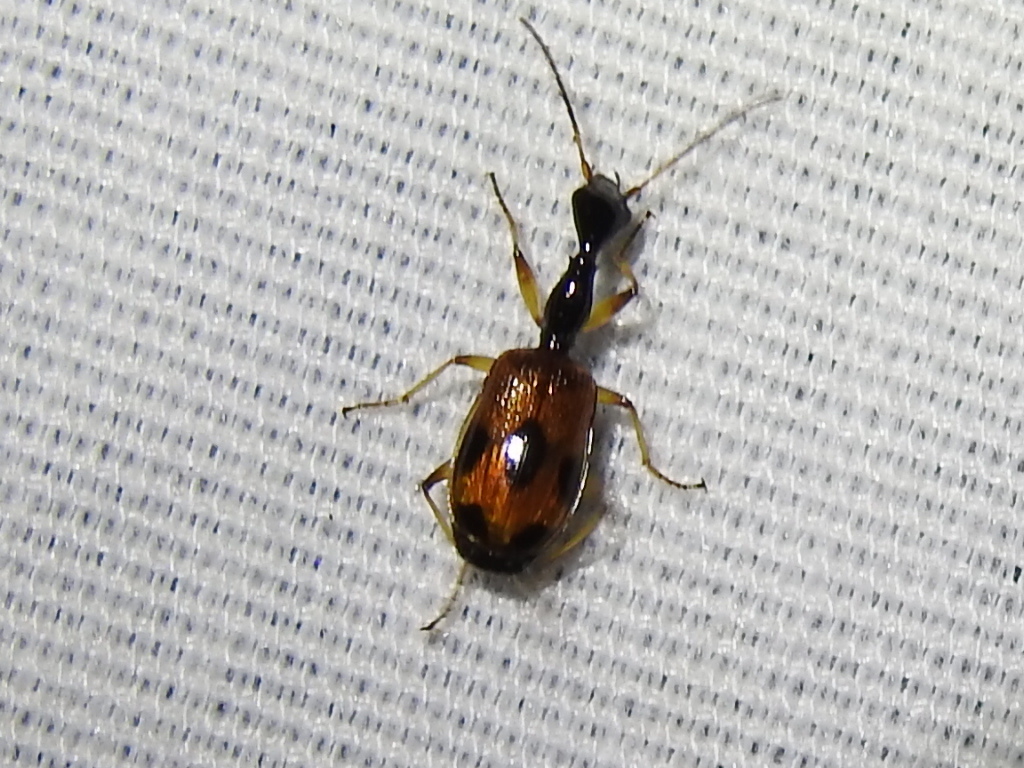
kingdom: Animalia
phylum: Arthropoda
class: Insecta
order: Coleoptera
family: Carabidae
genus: Colliuris
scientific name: Colliuris pensylvanica
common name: Long-necked ground beetle
